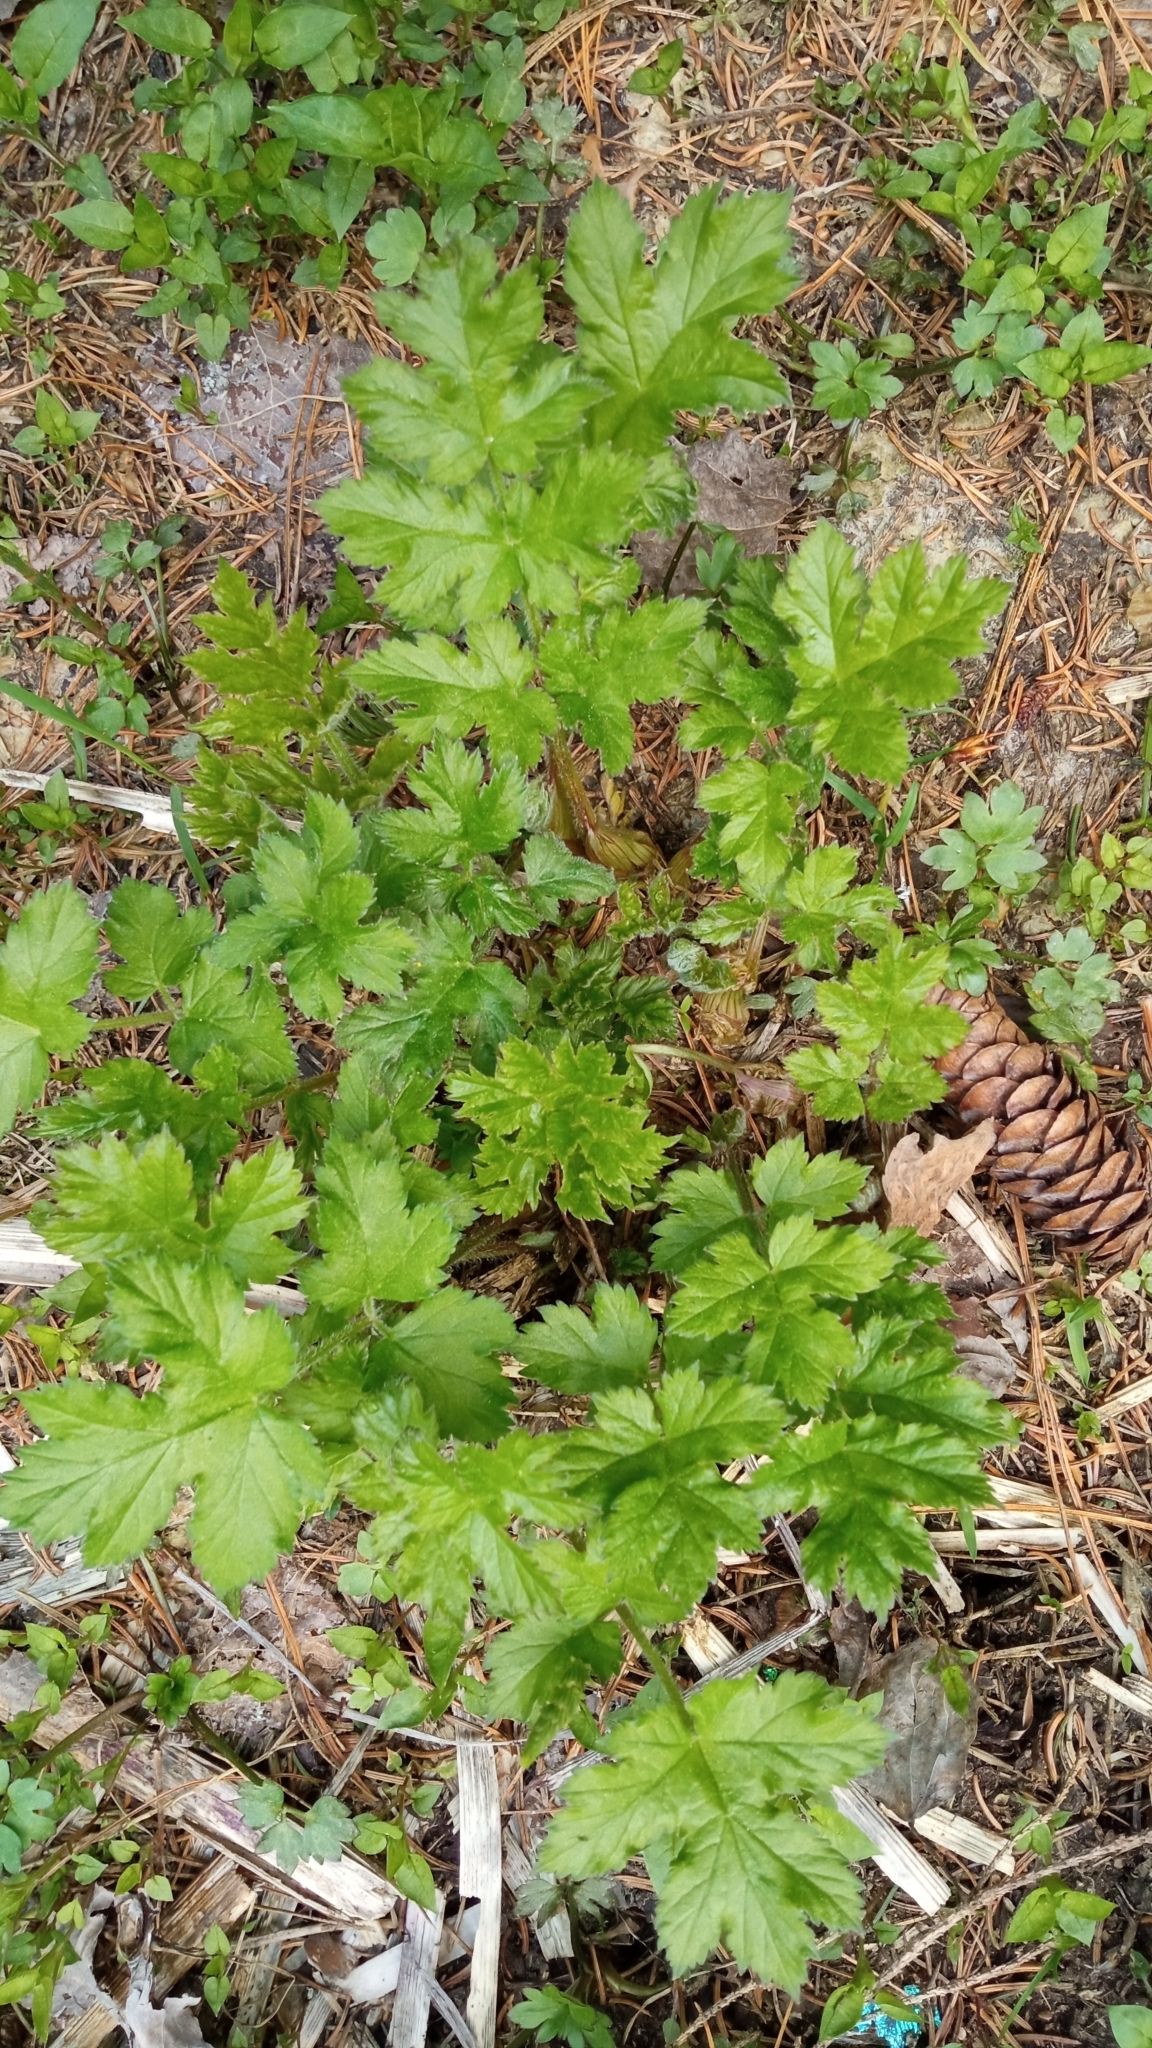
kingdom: Plantae
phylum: Tracheophyta
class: Magnoliopsida
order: Apiales
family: Apiaceae
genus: Heracleum
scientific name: Heracleum sphondylium
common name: Hogweed
